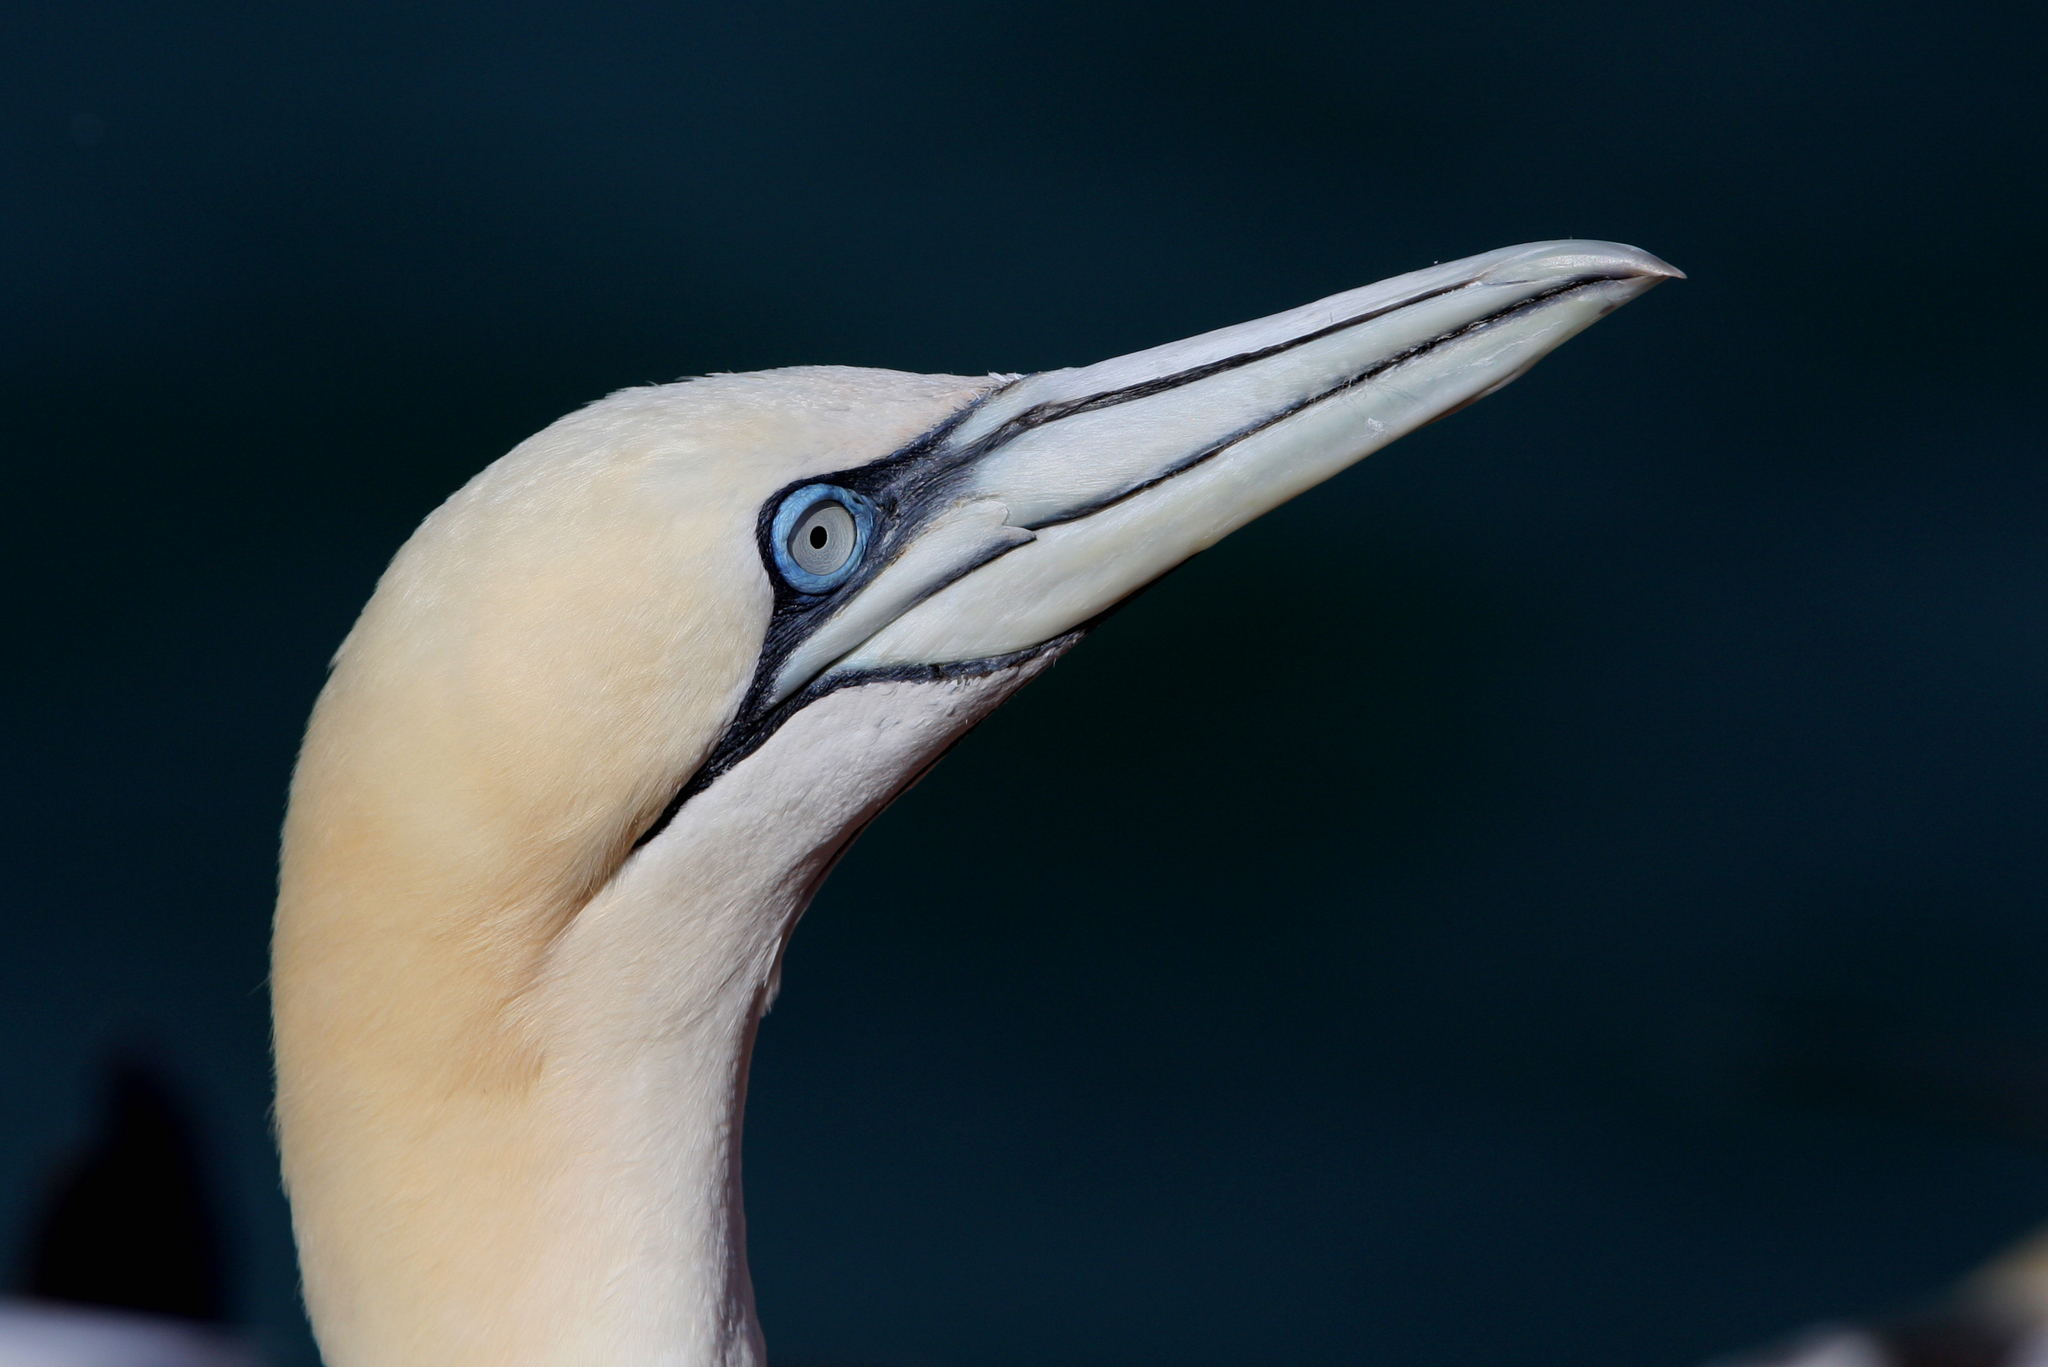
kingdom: Animalia
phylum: Chordata
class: Aves
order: Suliformes
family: Sulidae
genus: Morus
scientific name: Morus bassanus
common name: Northern gannet
